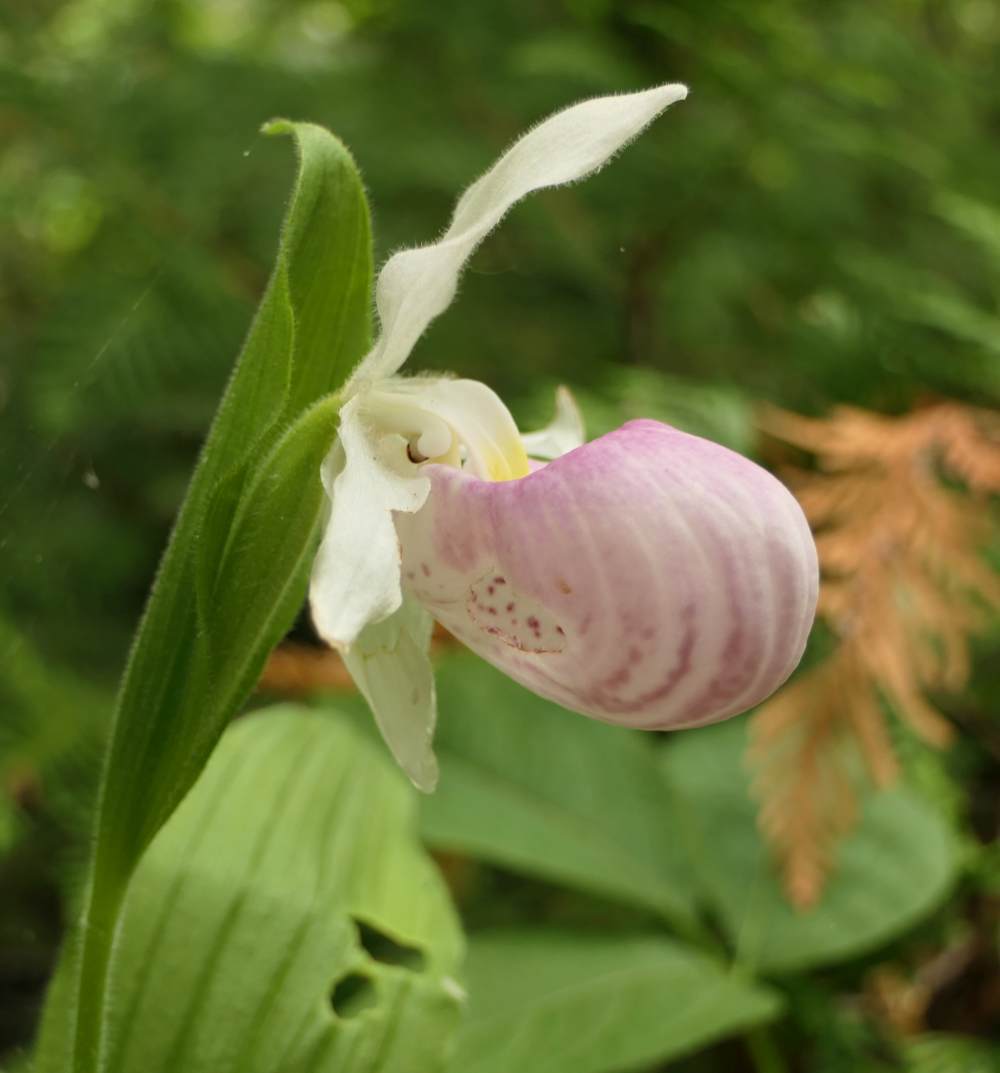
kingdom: Plantae
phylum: Tracheophyta
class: Liliopsida
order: Asparagales
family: Orchidaceae
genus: Cypripedium
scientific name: Cypripedium reginae
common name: Queen lady's-slipper
